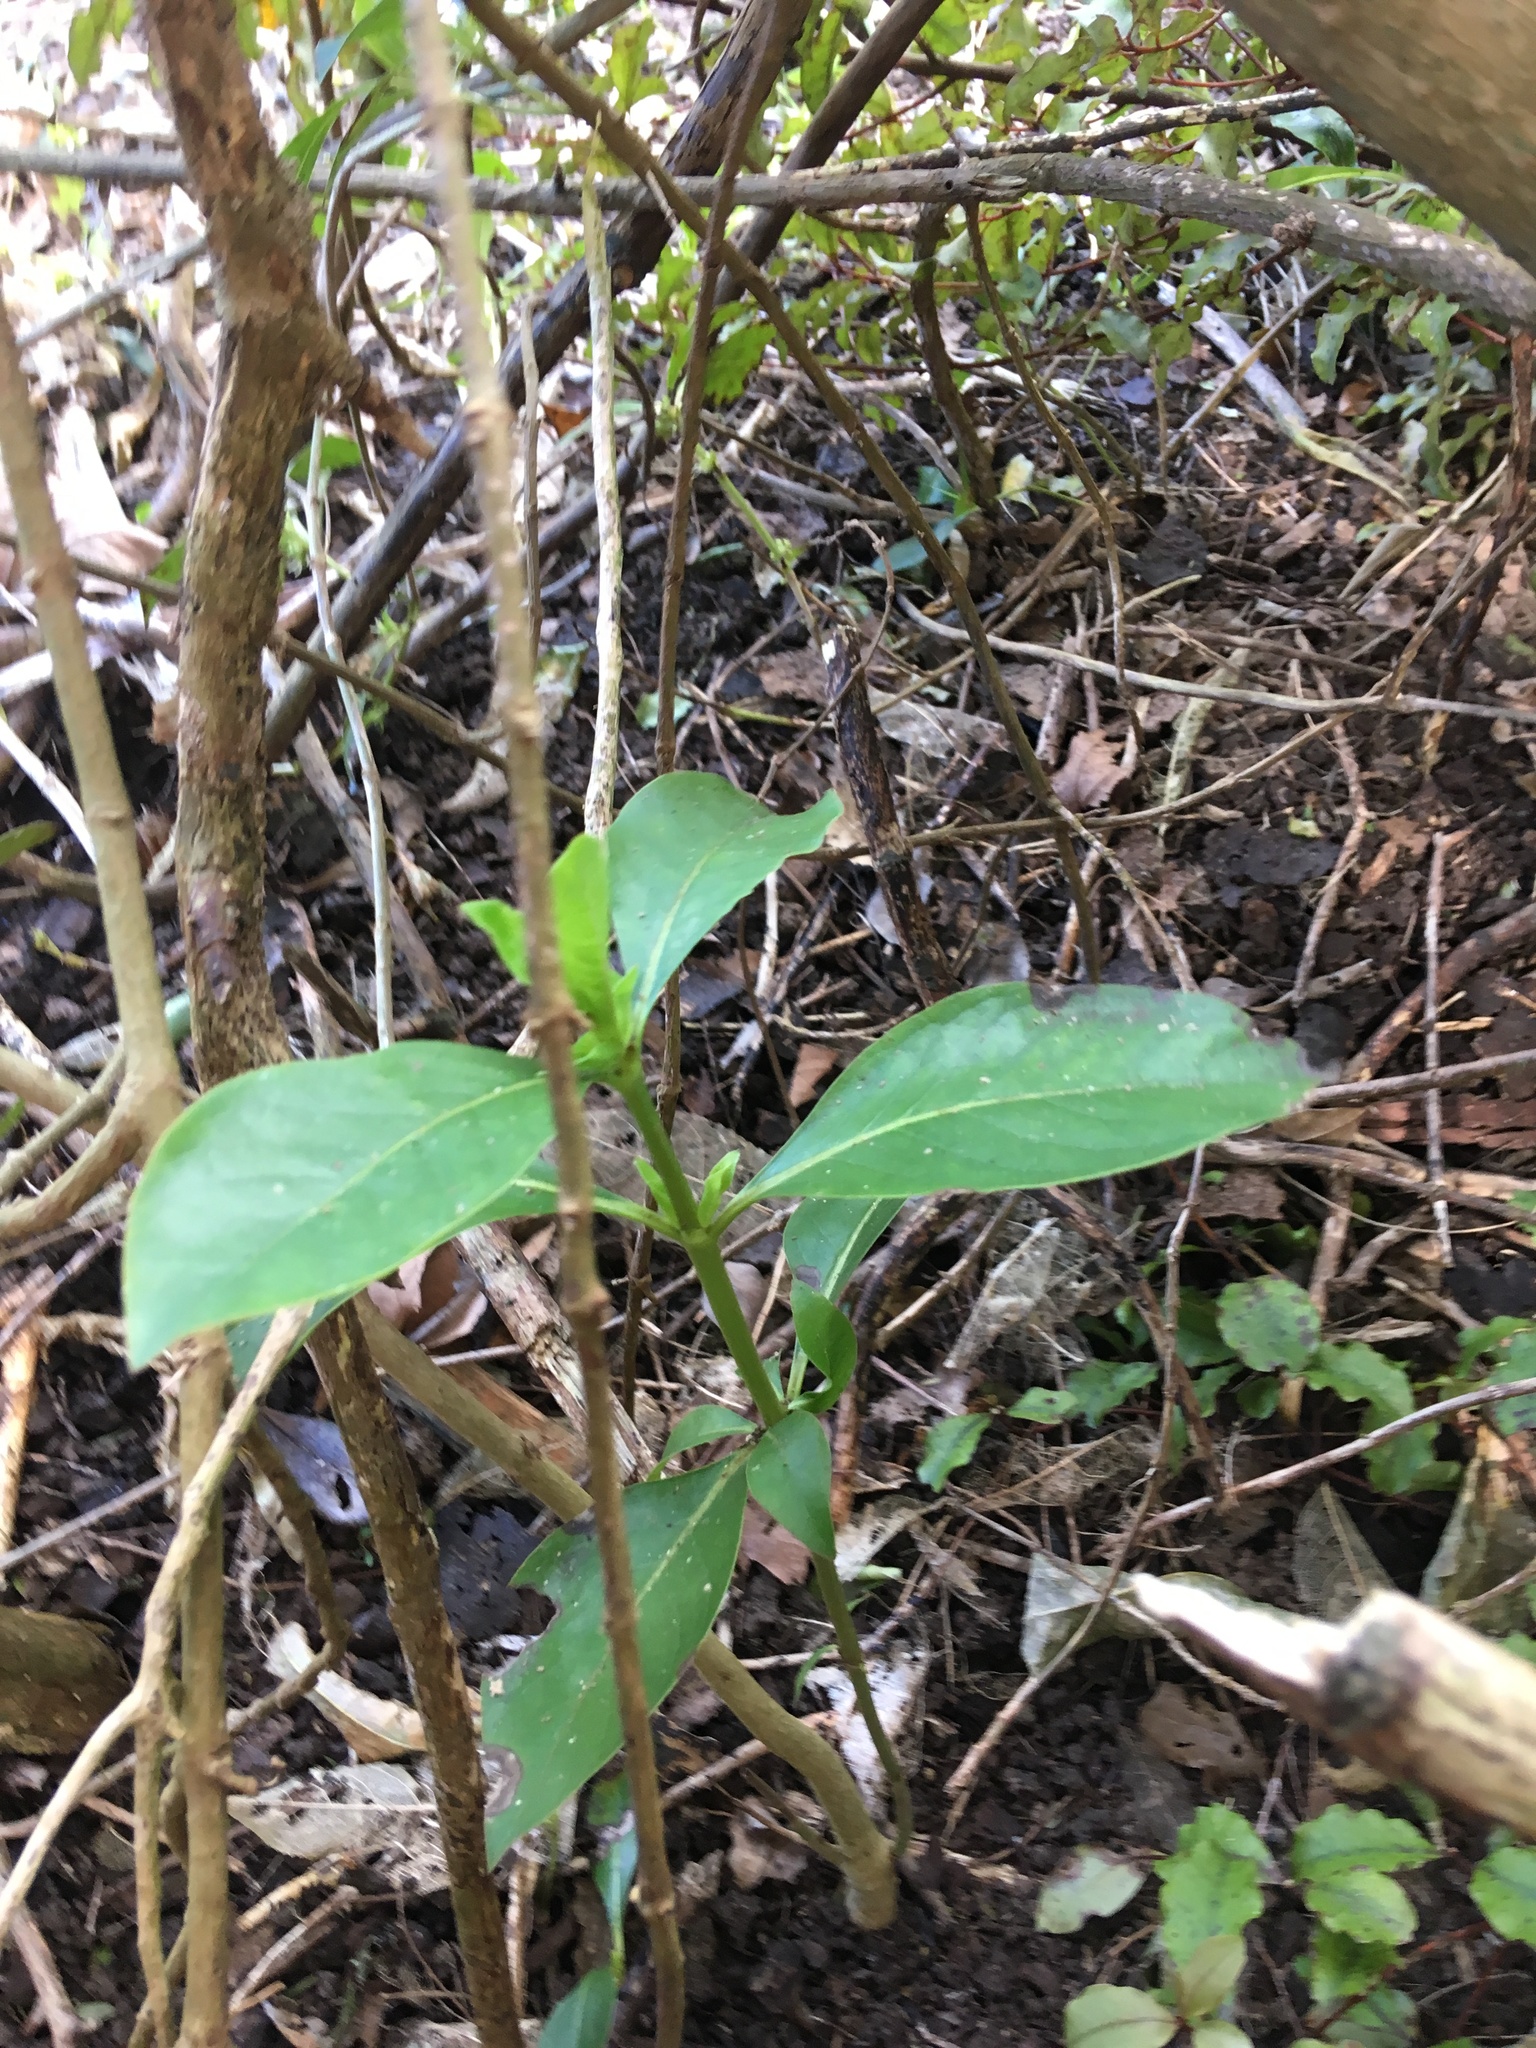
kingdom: Plantae
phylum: Tracheophyta
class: Magnoliopsida
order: Gentianales
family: Rubiaceae
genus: Coprosma
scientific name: Coprosma robusta
